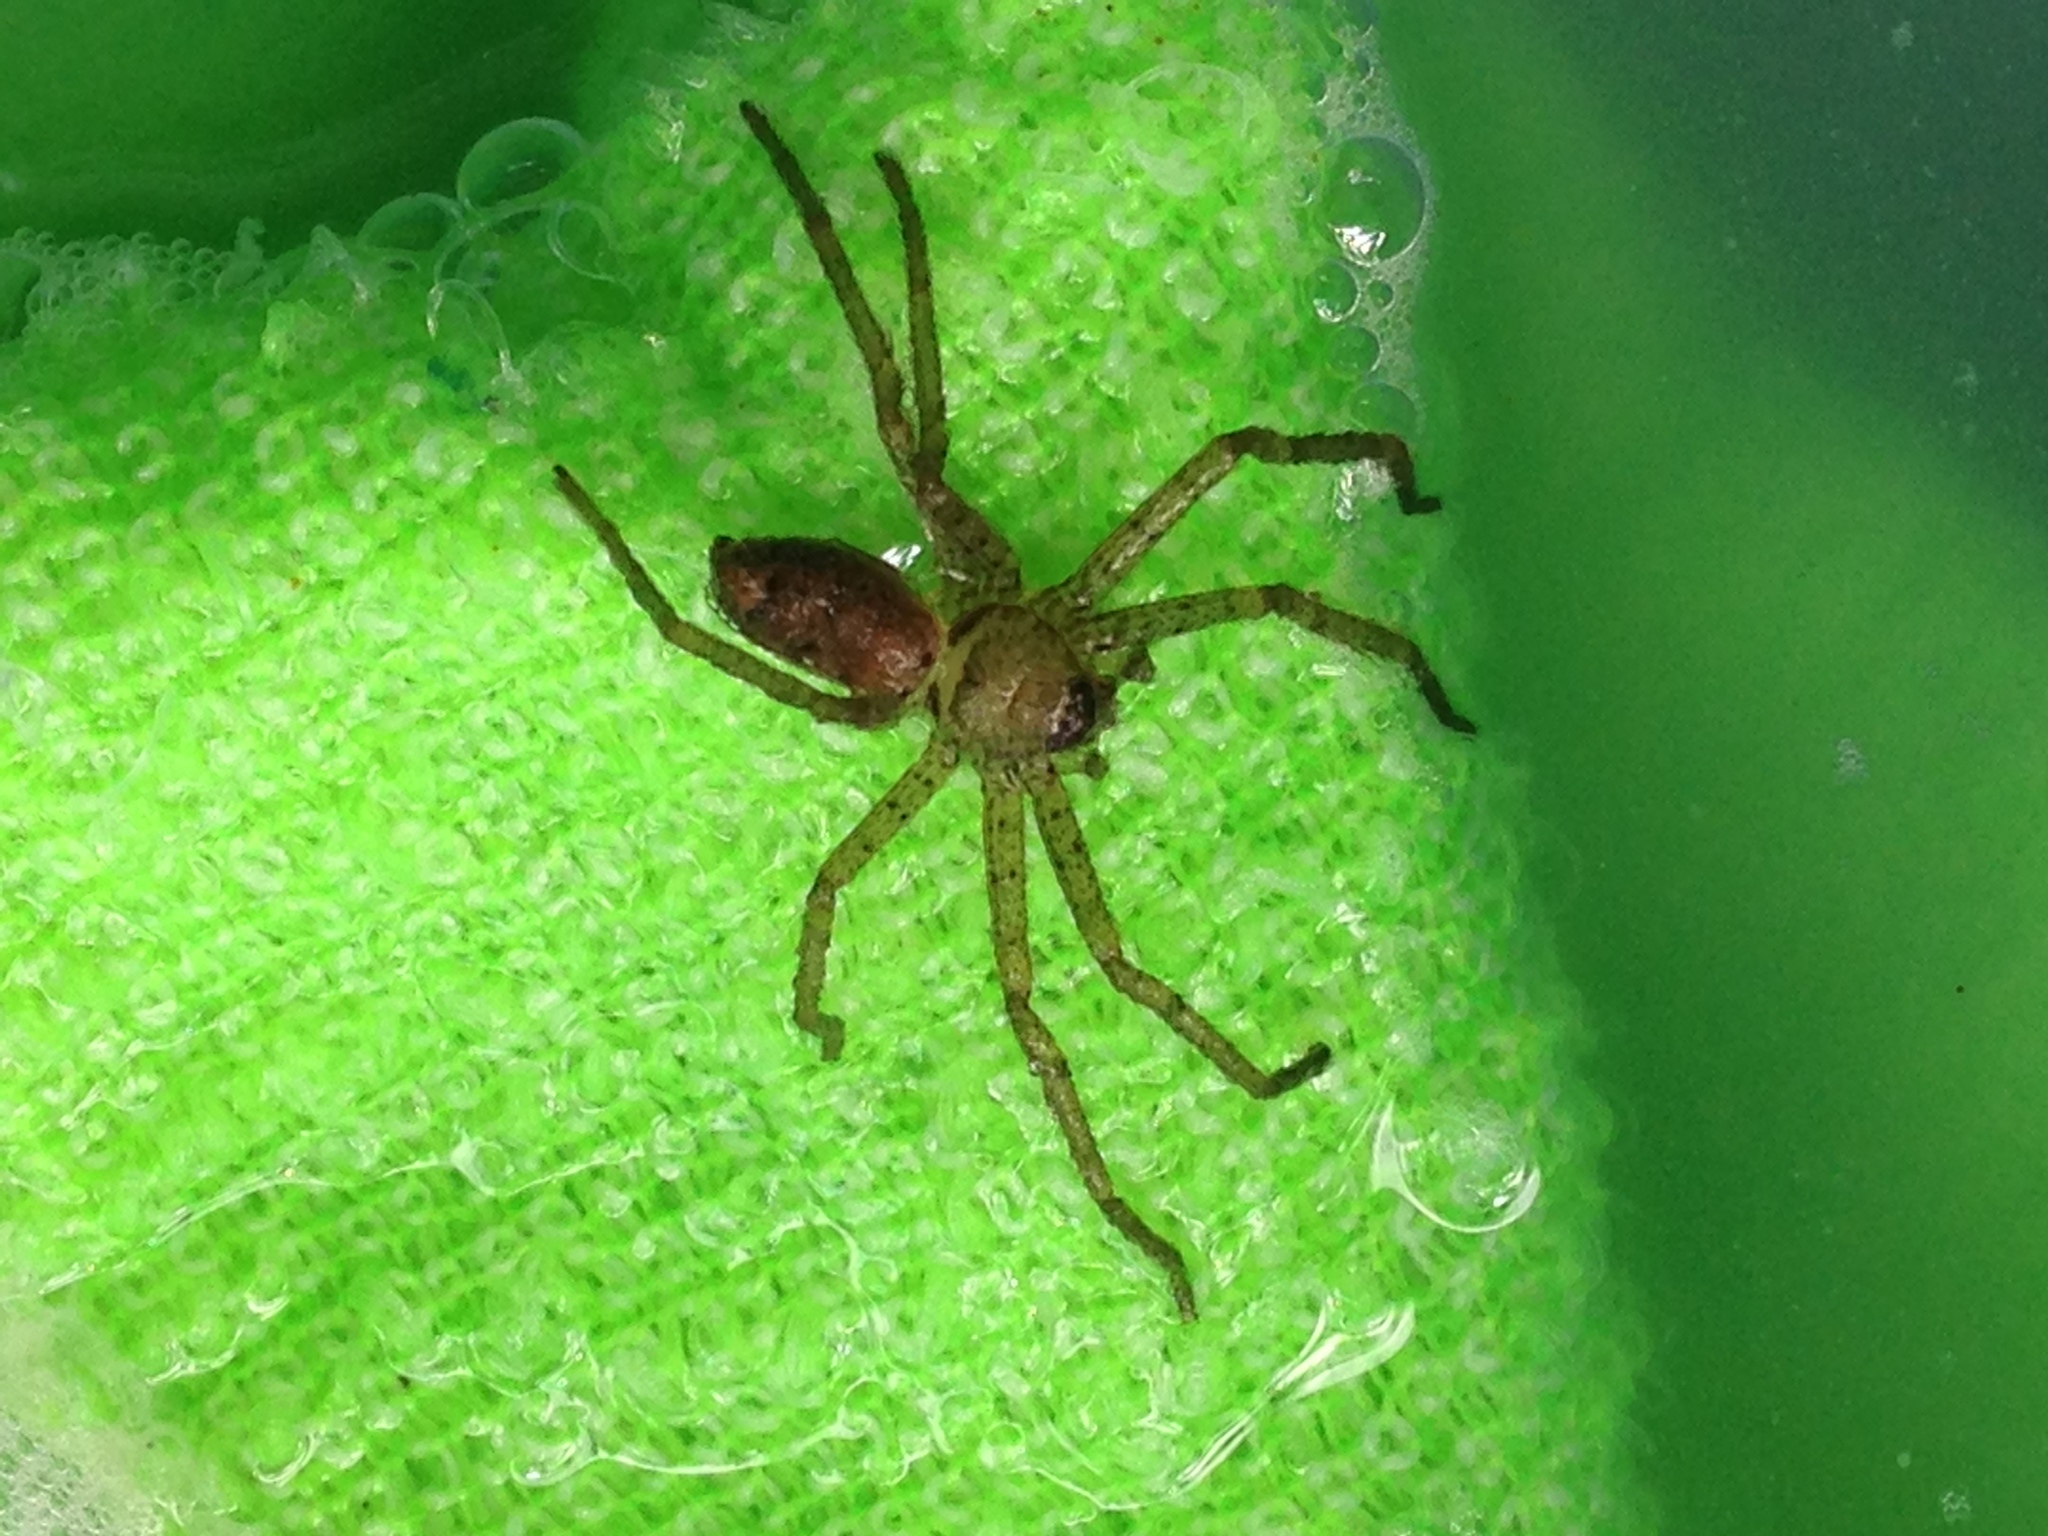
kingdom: Animalia
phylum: Arthropoda
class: Arachnida
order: Araneae
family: Sparassidae
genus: Heteropoda
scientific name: Heteropoda venatoria
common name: Huntsman spider
